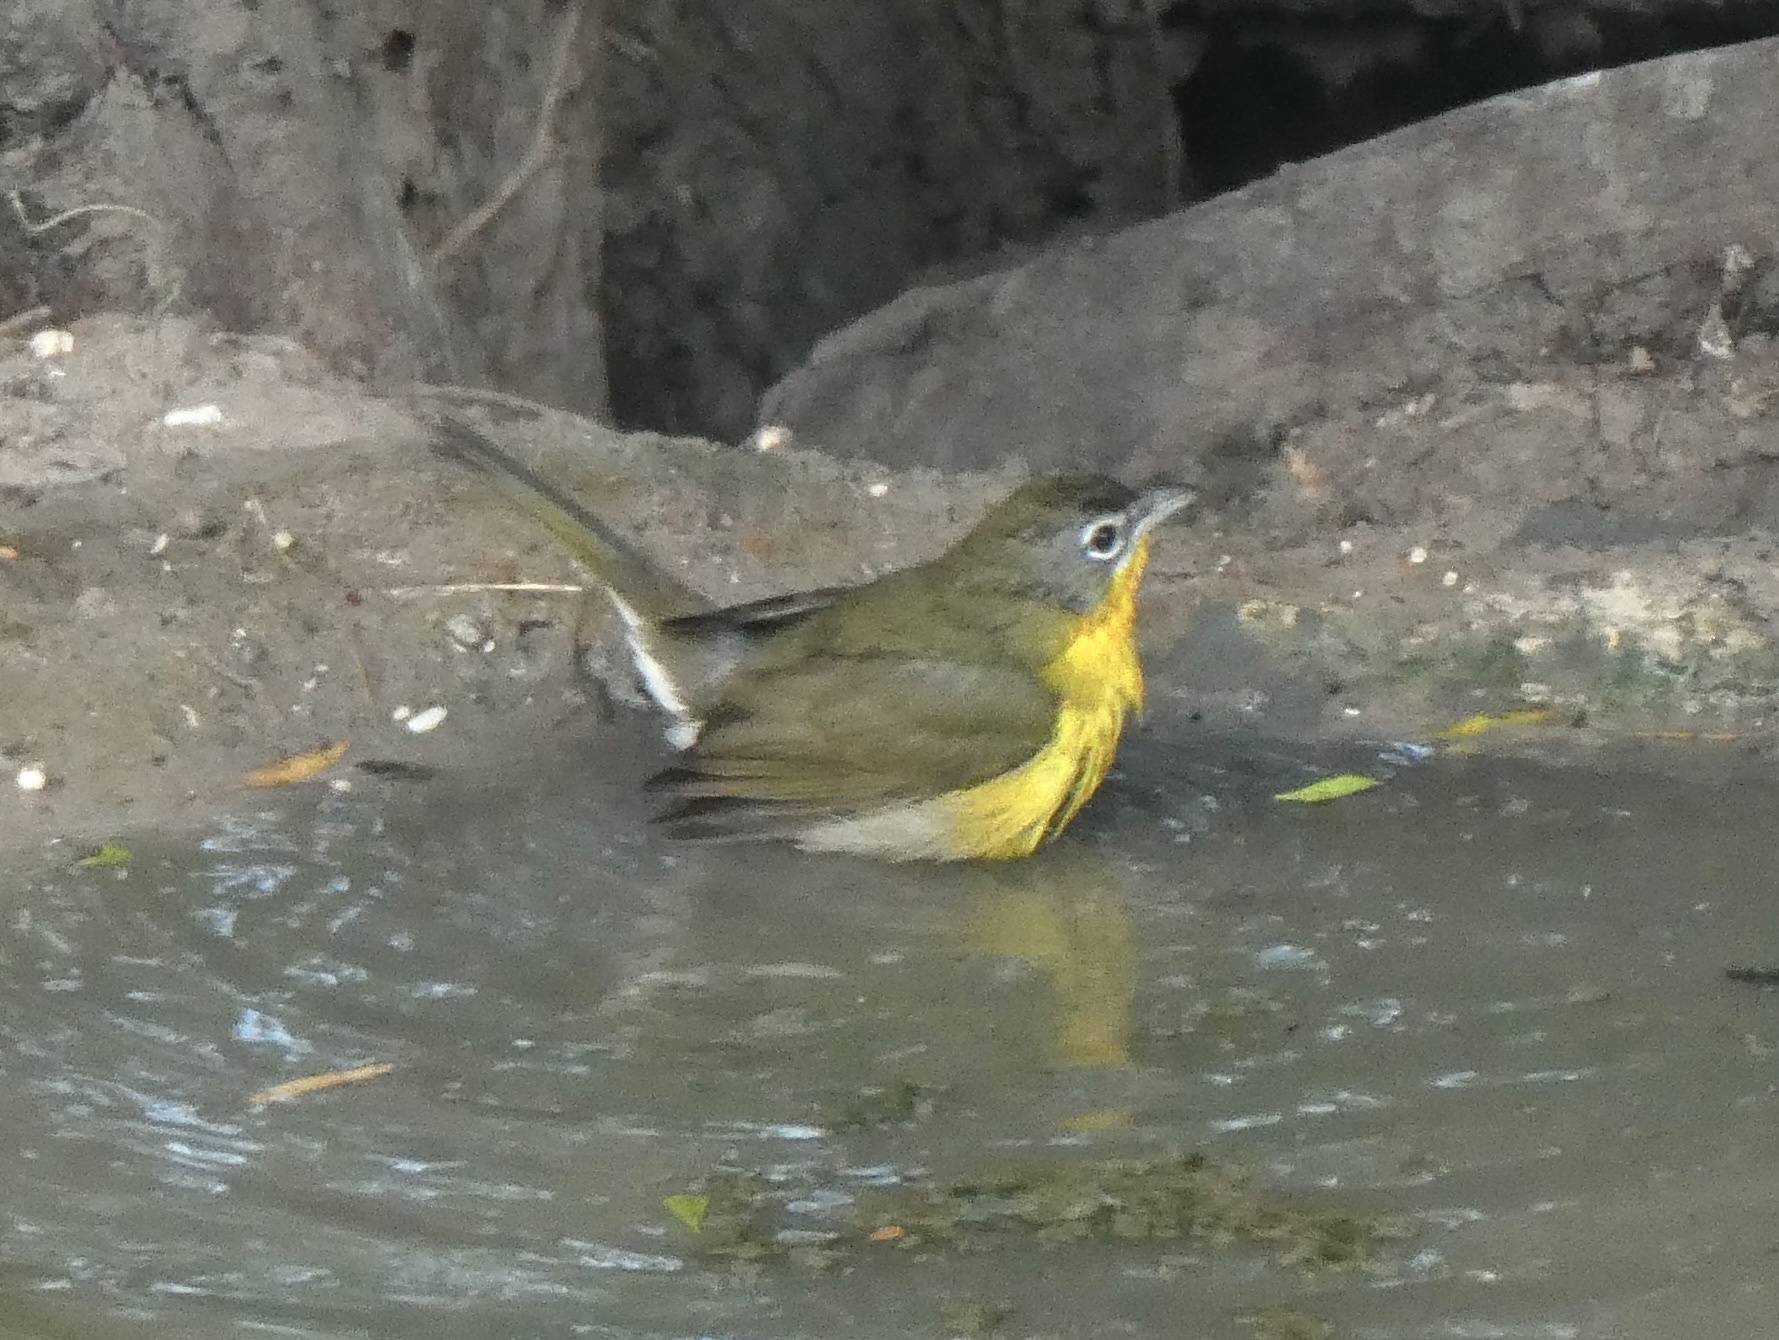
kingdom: Animalia
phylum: Chordata
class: Aves
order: Passeriformes
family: Parulidae
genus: Icteria
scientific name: Icteria virens
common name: Yellow-breasted chat
